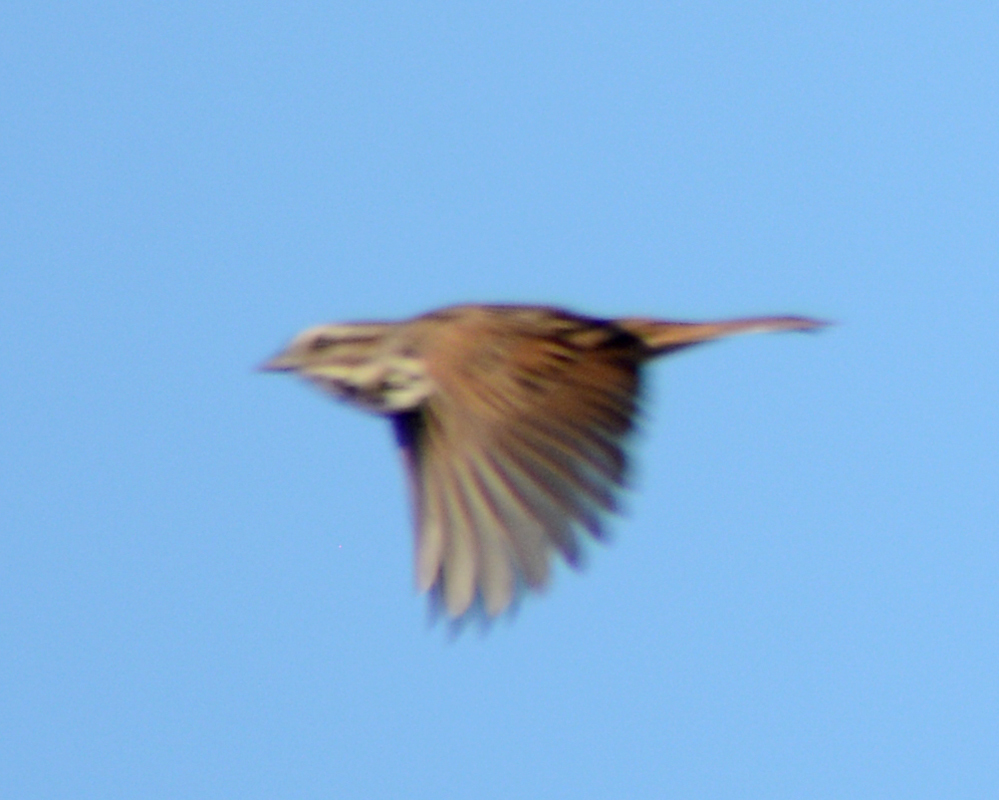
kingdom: Animalia
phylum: Chordata
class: Aves
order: Passeriformes
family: Passerellidae
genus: Melospiza
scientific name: Melospiza melodia
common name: Song sparrow
